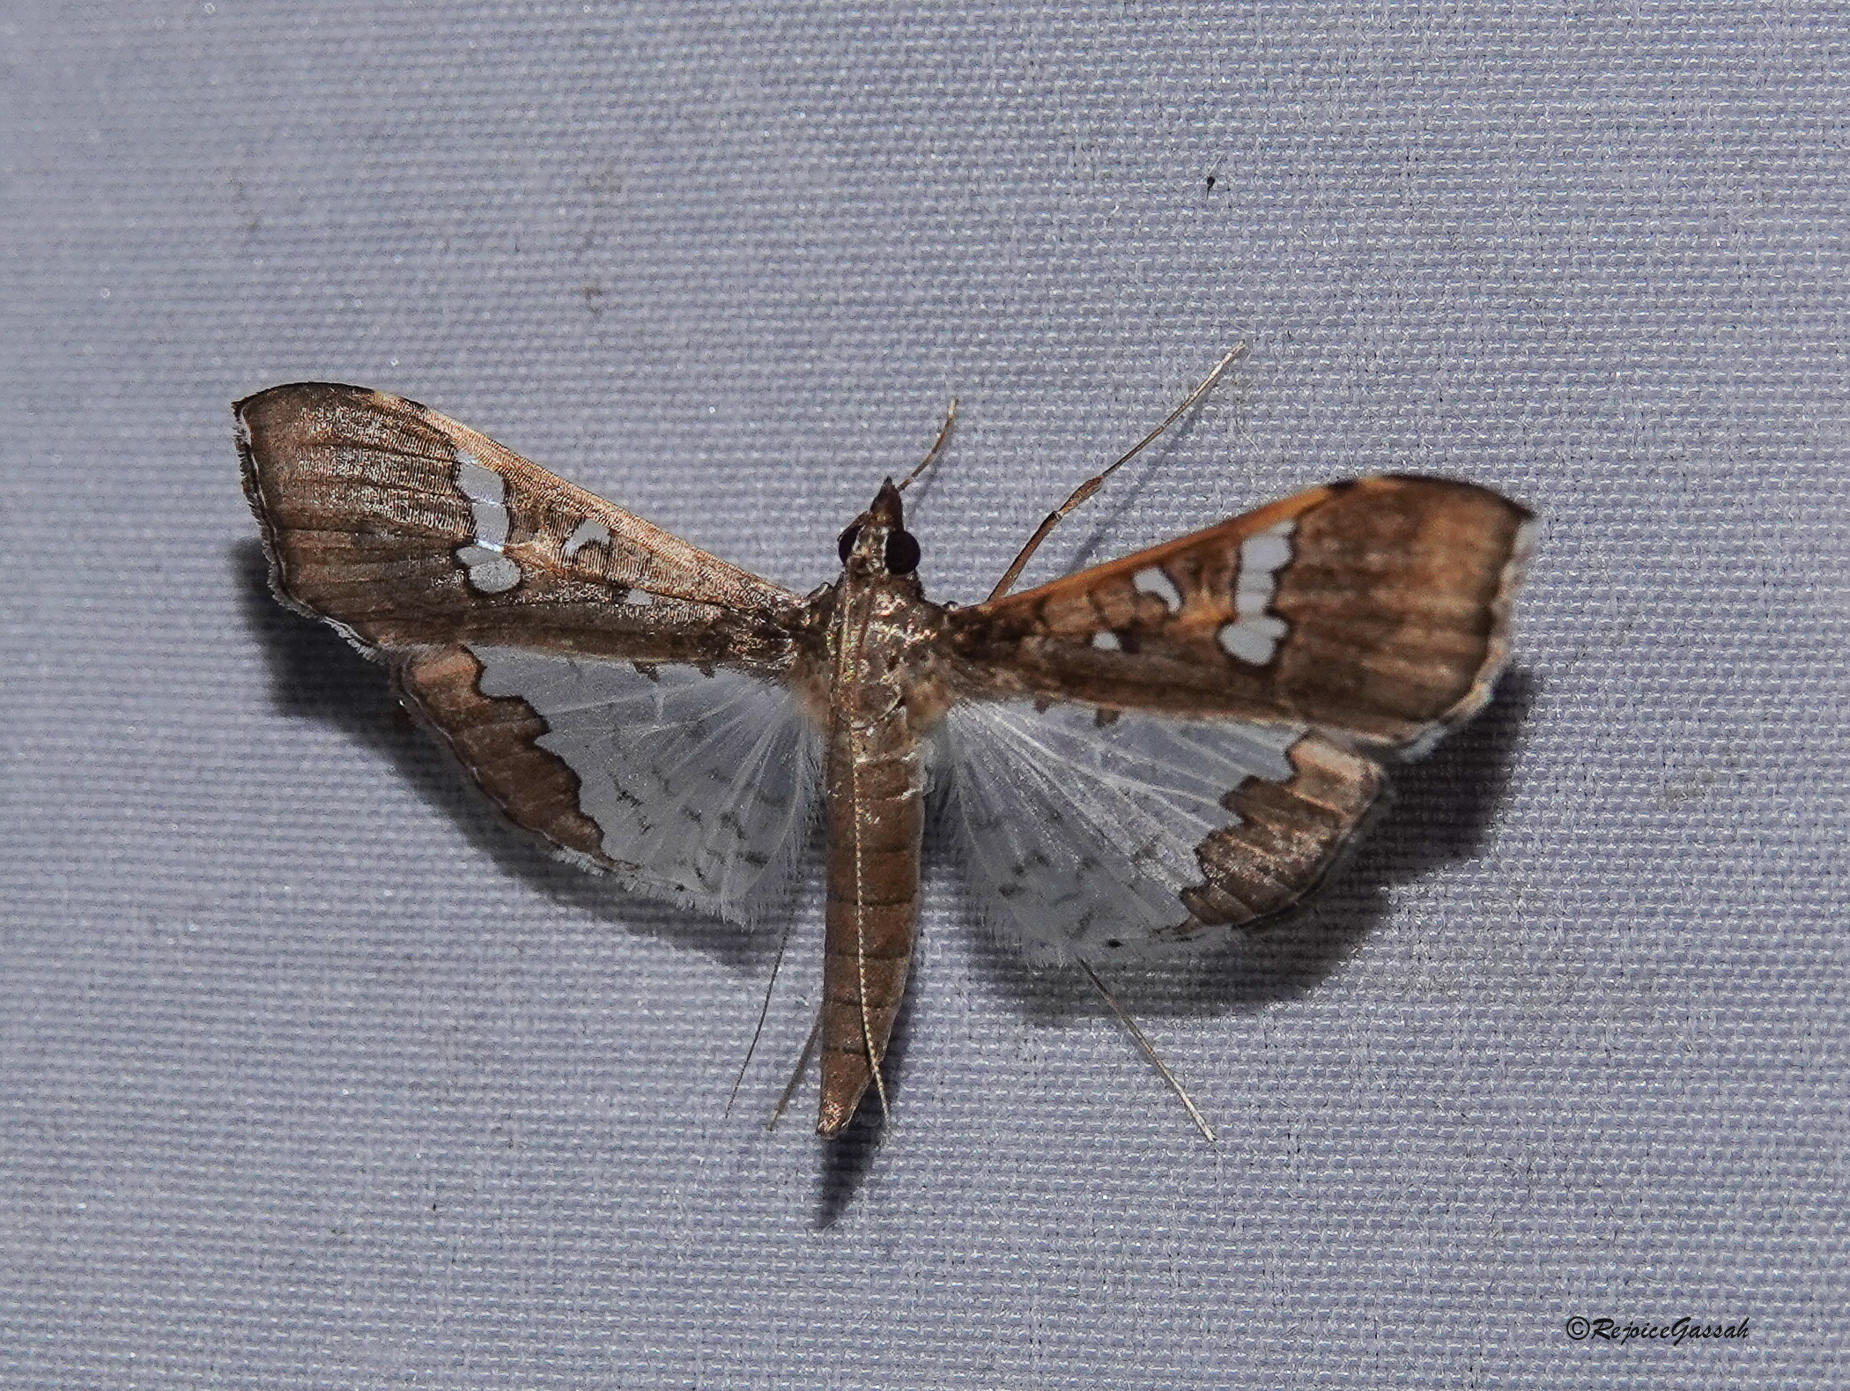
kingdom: Animalia
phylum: Arthropoda
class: Insecta
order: Lepidoptera
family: Crambidae
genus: Maruca
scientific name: Maruca vitrata
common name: Maruca pod borer
